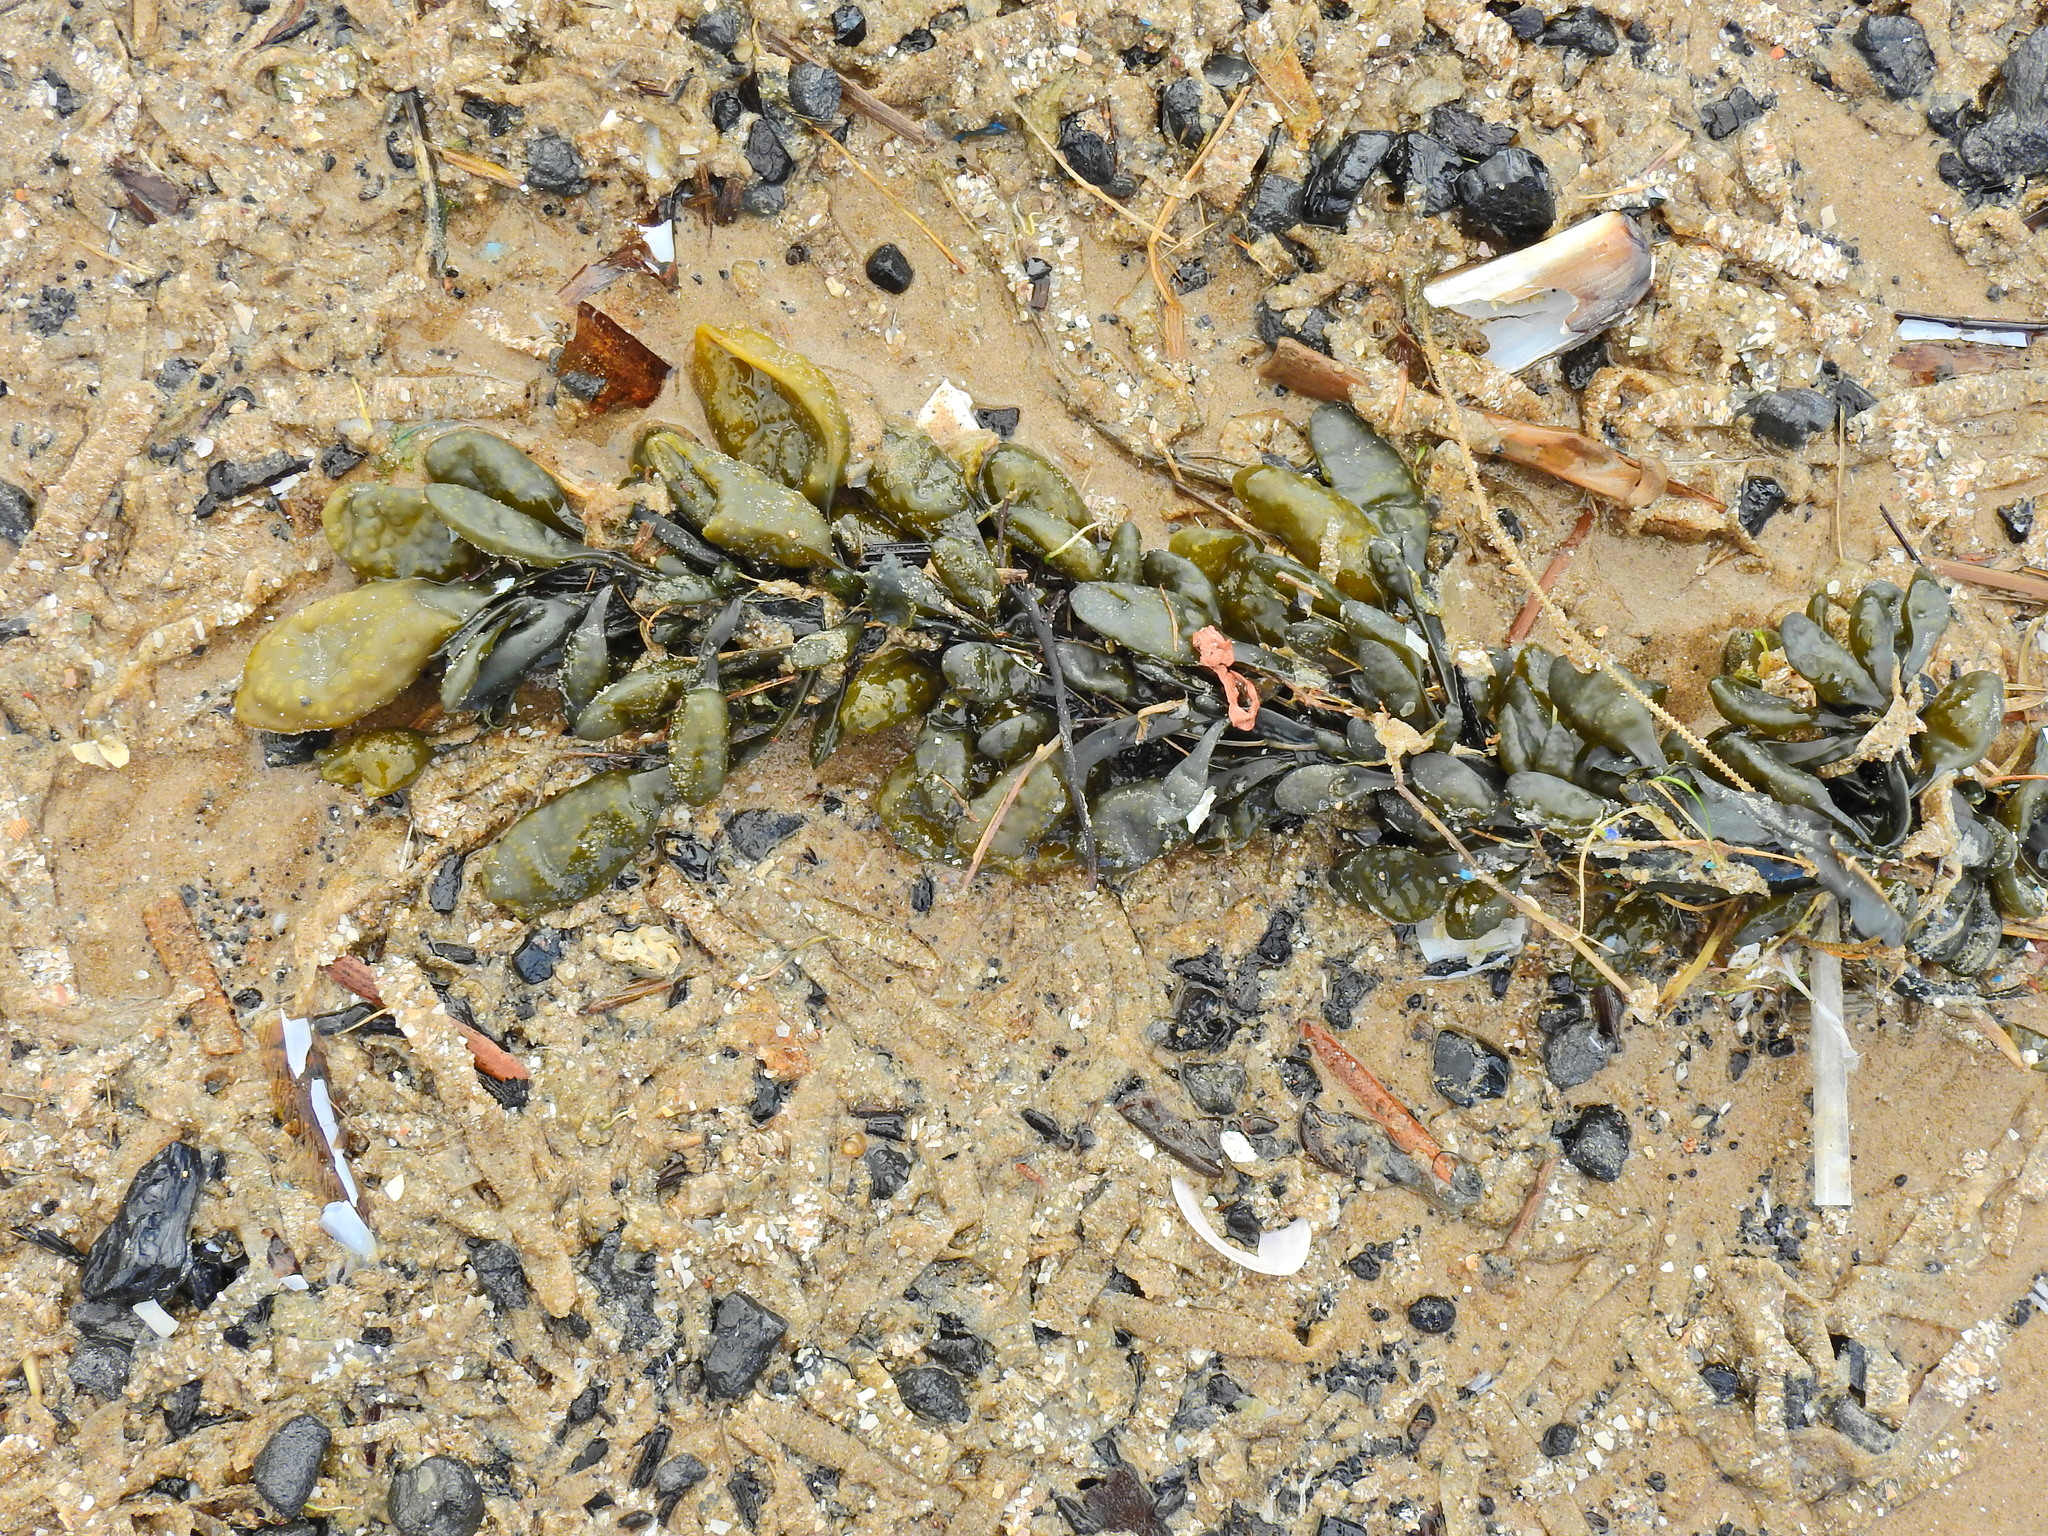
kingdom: Chromista
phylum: Ochrophyta
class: Phaeophyceae
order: Fucales
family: Fucaceae
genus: Ascophyllum
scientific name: Ascophyllum nodosum
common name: Knotted wrack
